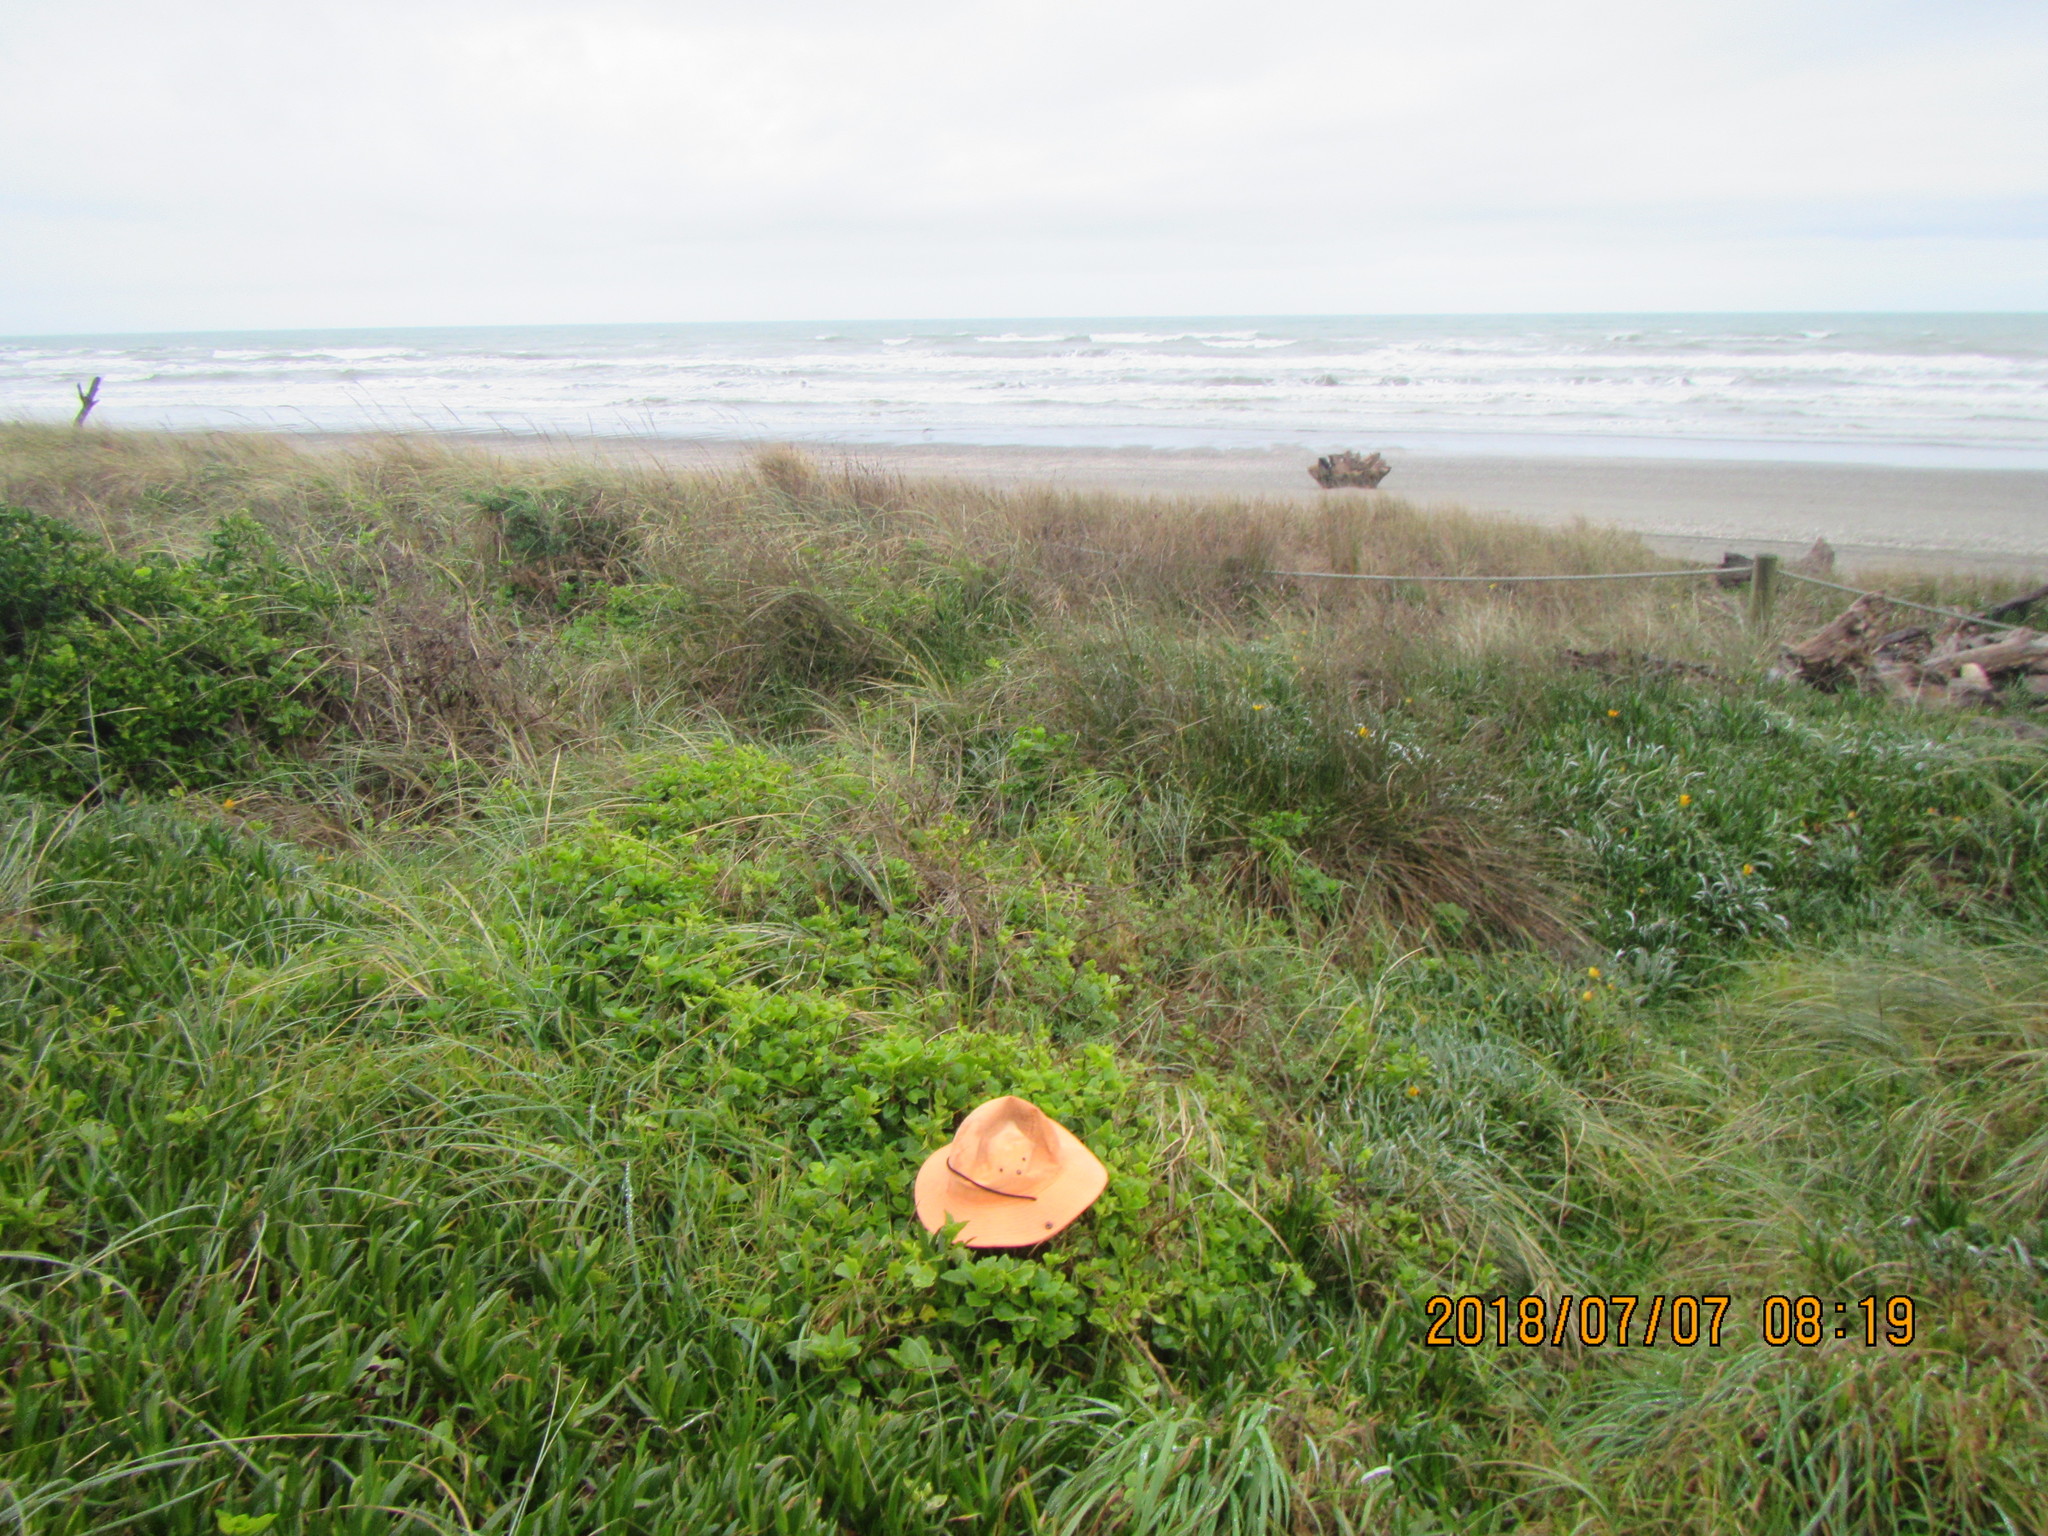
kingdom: Plantae
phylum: Tracheophyta
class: Magnoliopsida
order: Asterales
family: Asteraceae
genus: Senecio
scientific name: Senecio angulatus
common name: Climbing groundsel
